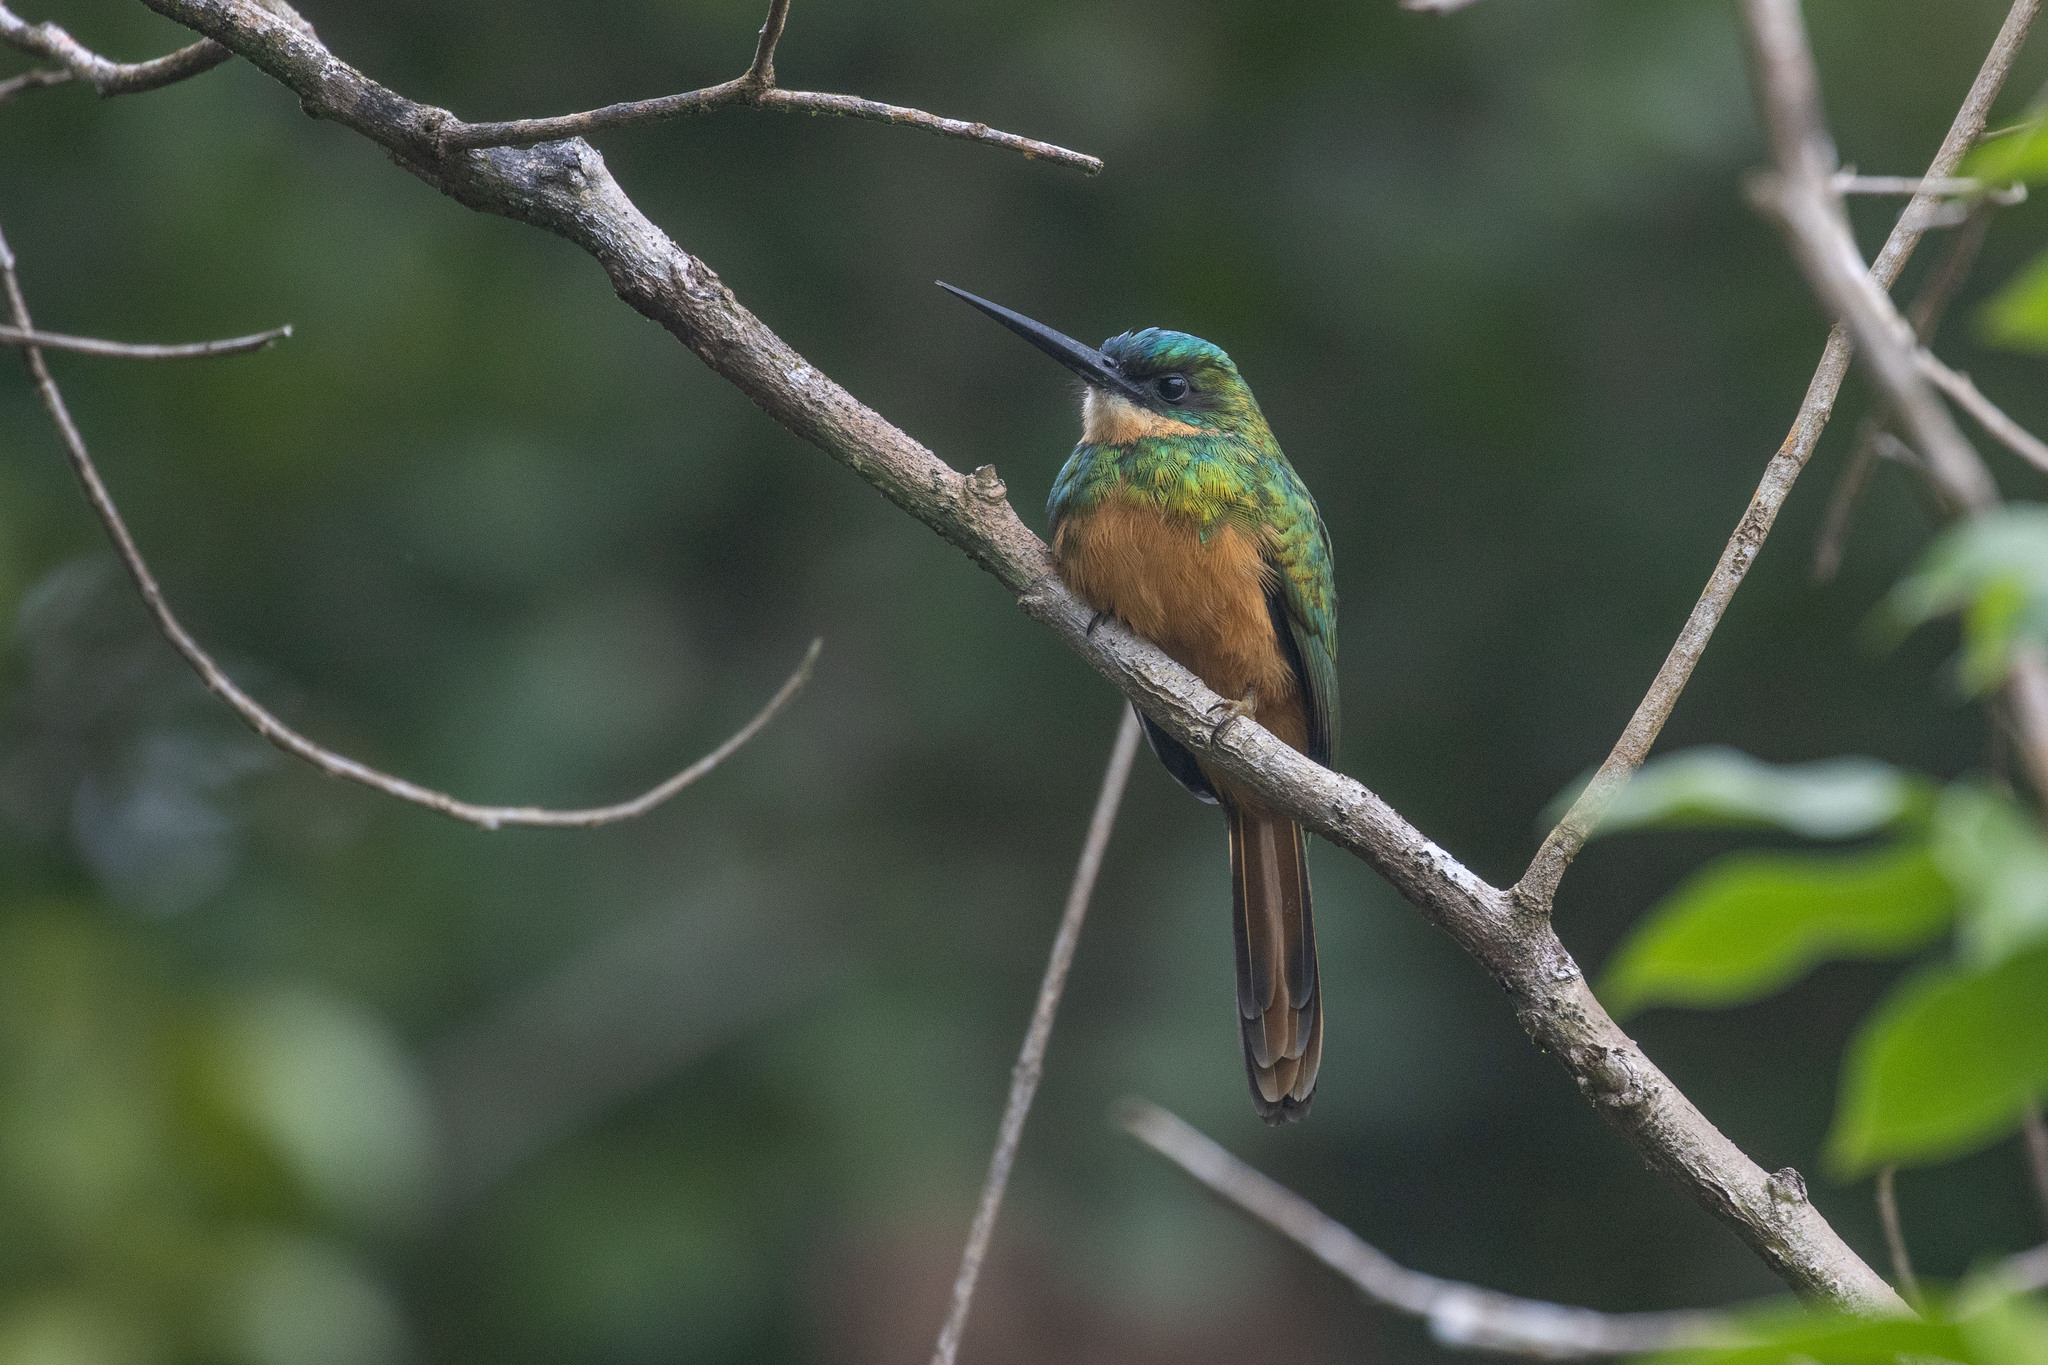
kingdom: Animalia
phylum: Chordata
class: Aves
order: Piciformes
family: Galbulidae
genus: Galbula
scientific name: Galbula ruficauda
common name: Rufous-tailed jacamar
